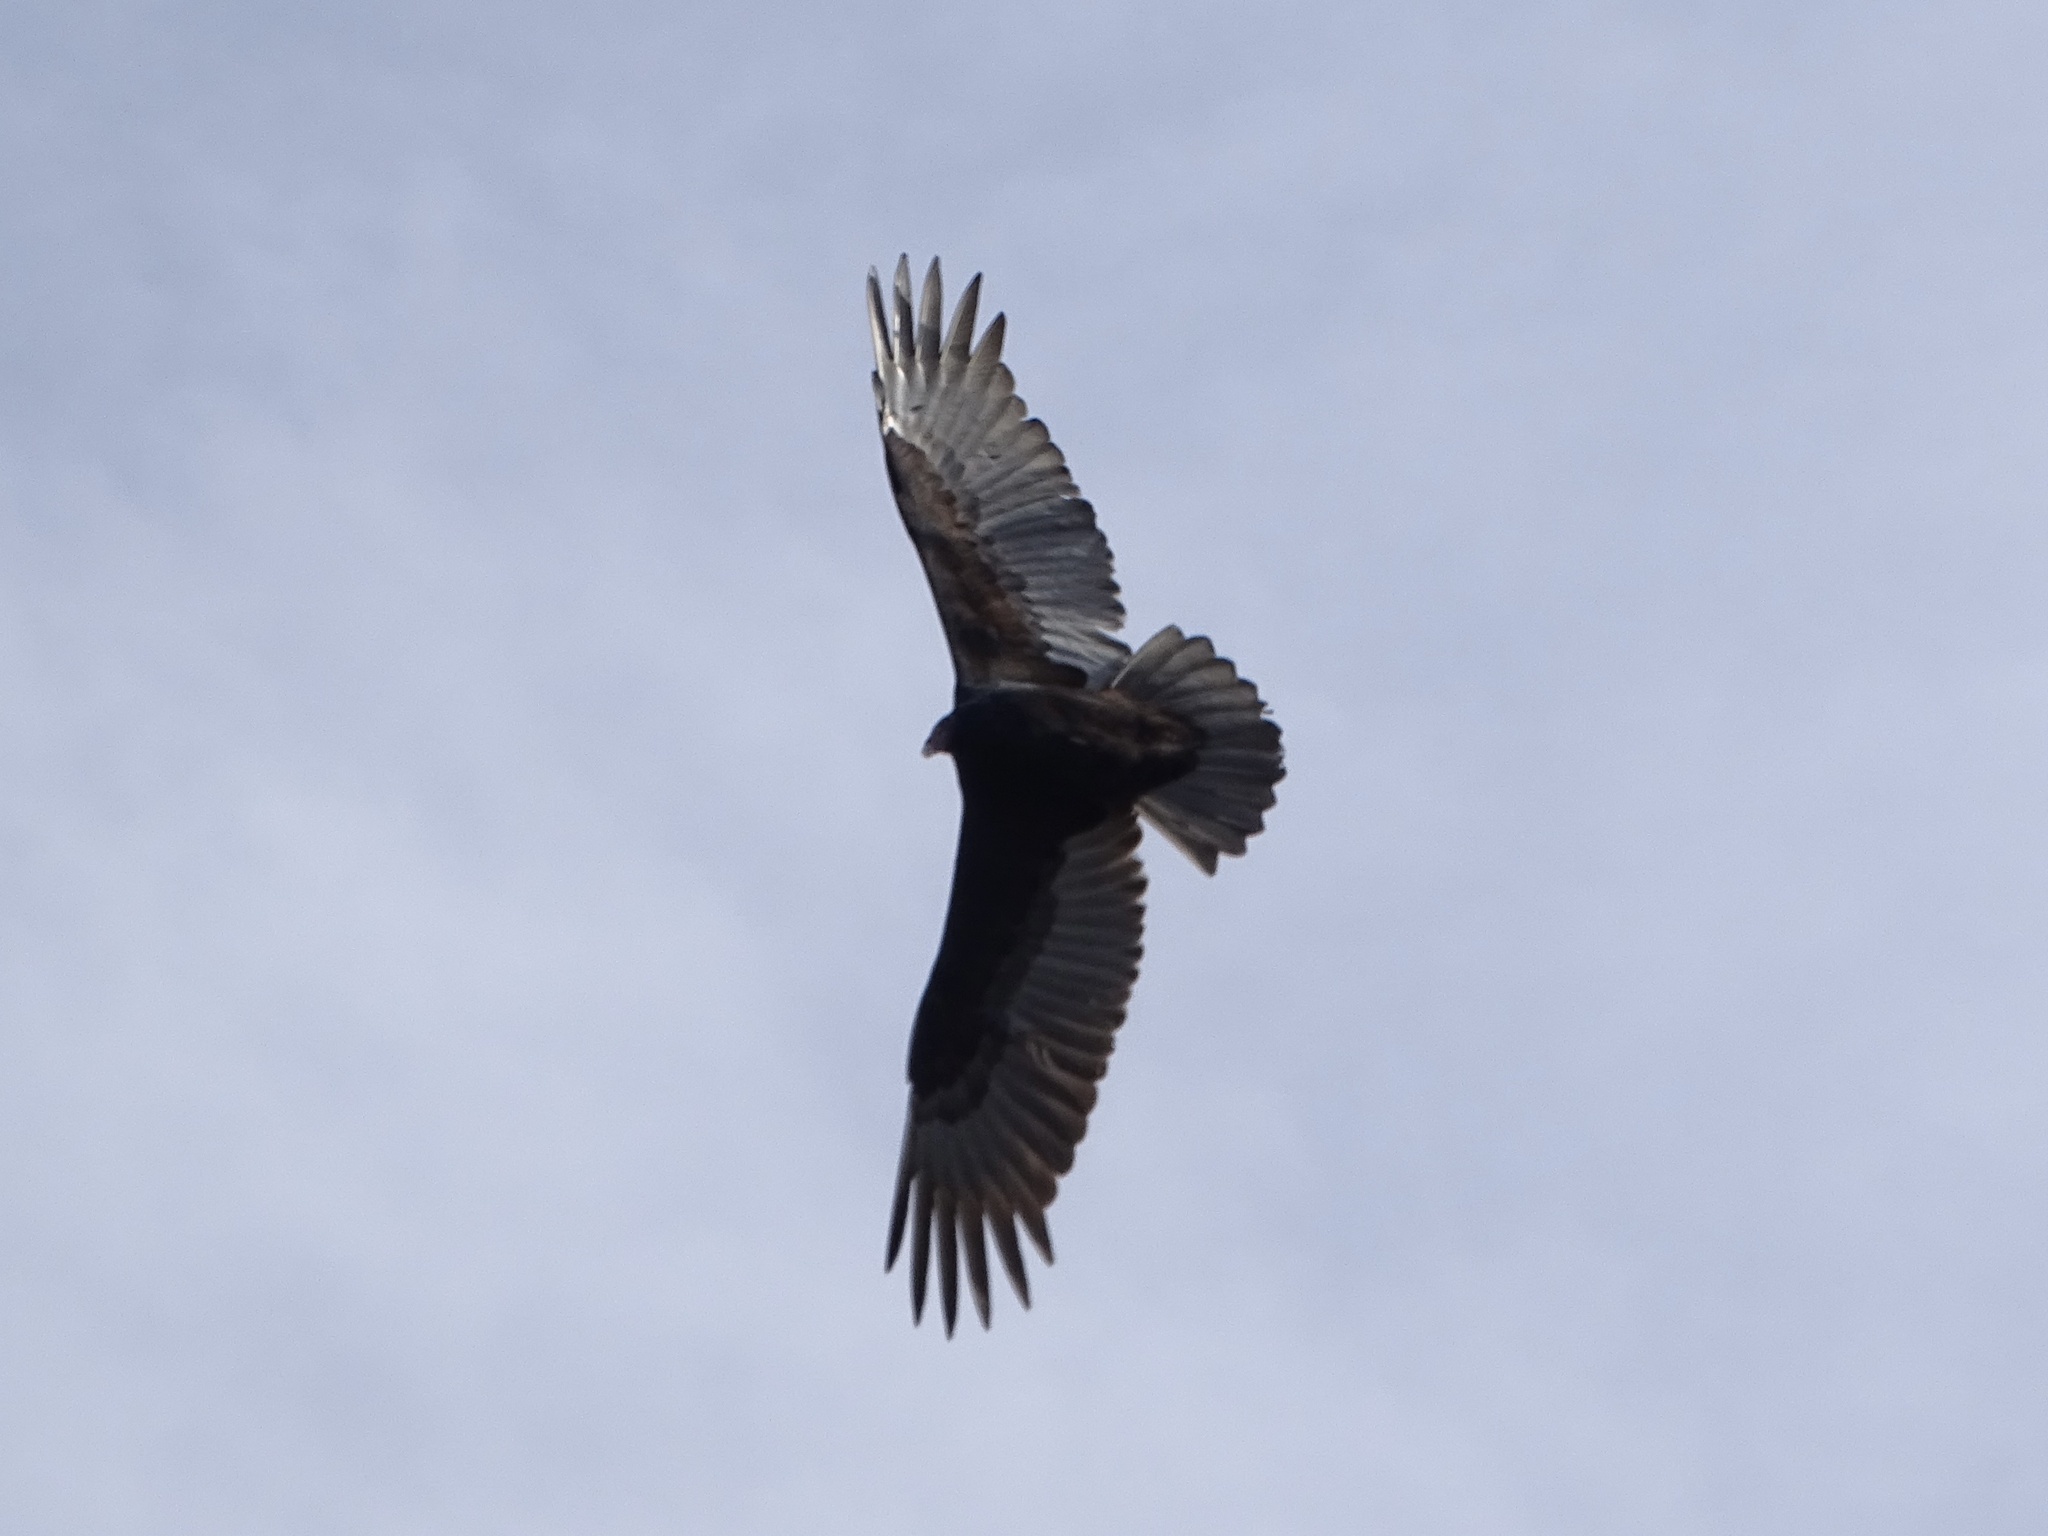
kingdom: Animalia
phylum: Chordata
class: Aves
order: Accipitriformes
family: Cathartidae
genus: Cathartes
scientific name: Cathartes aura
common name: Turkey vulture
